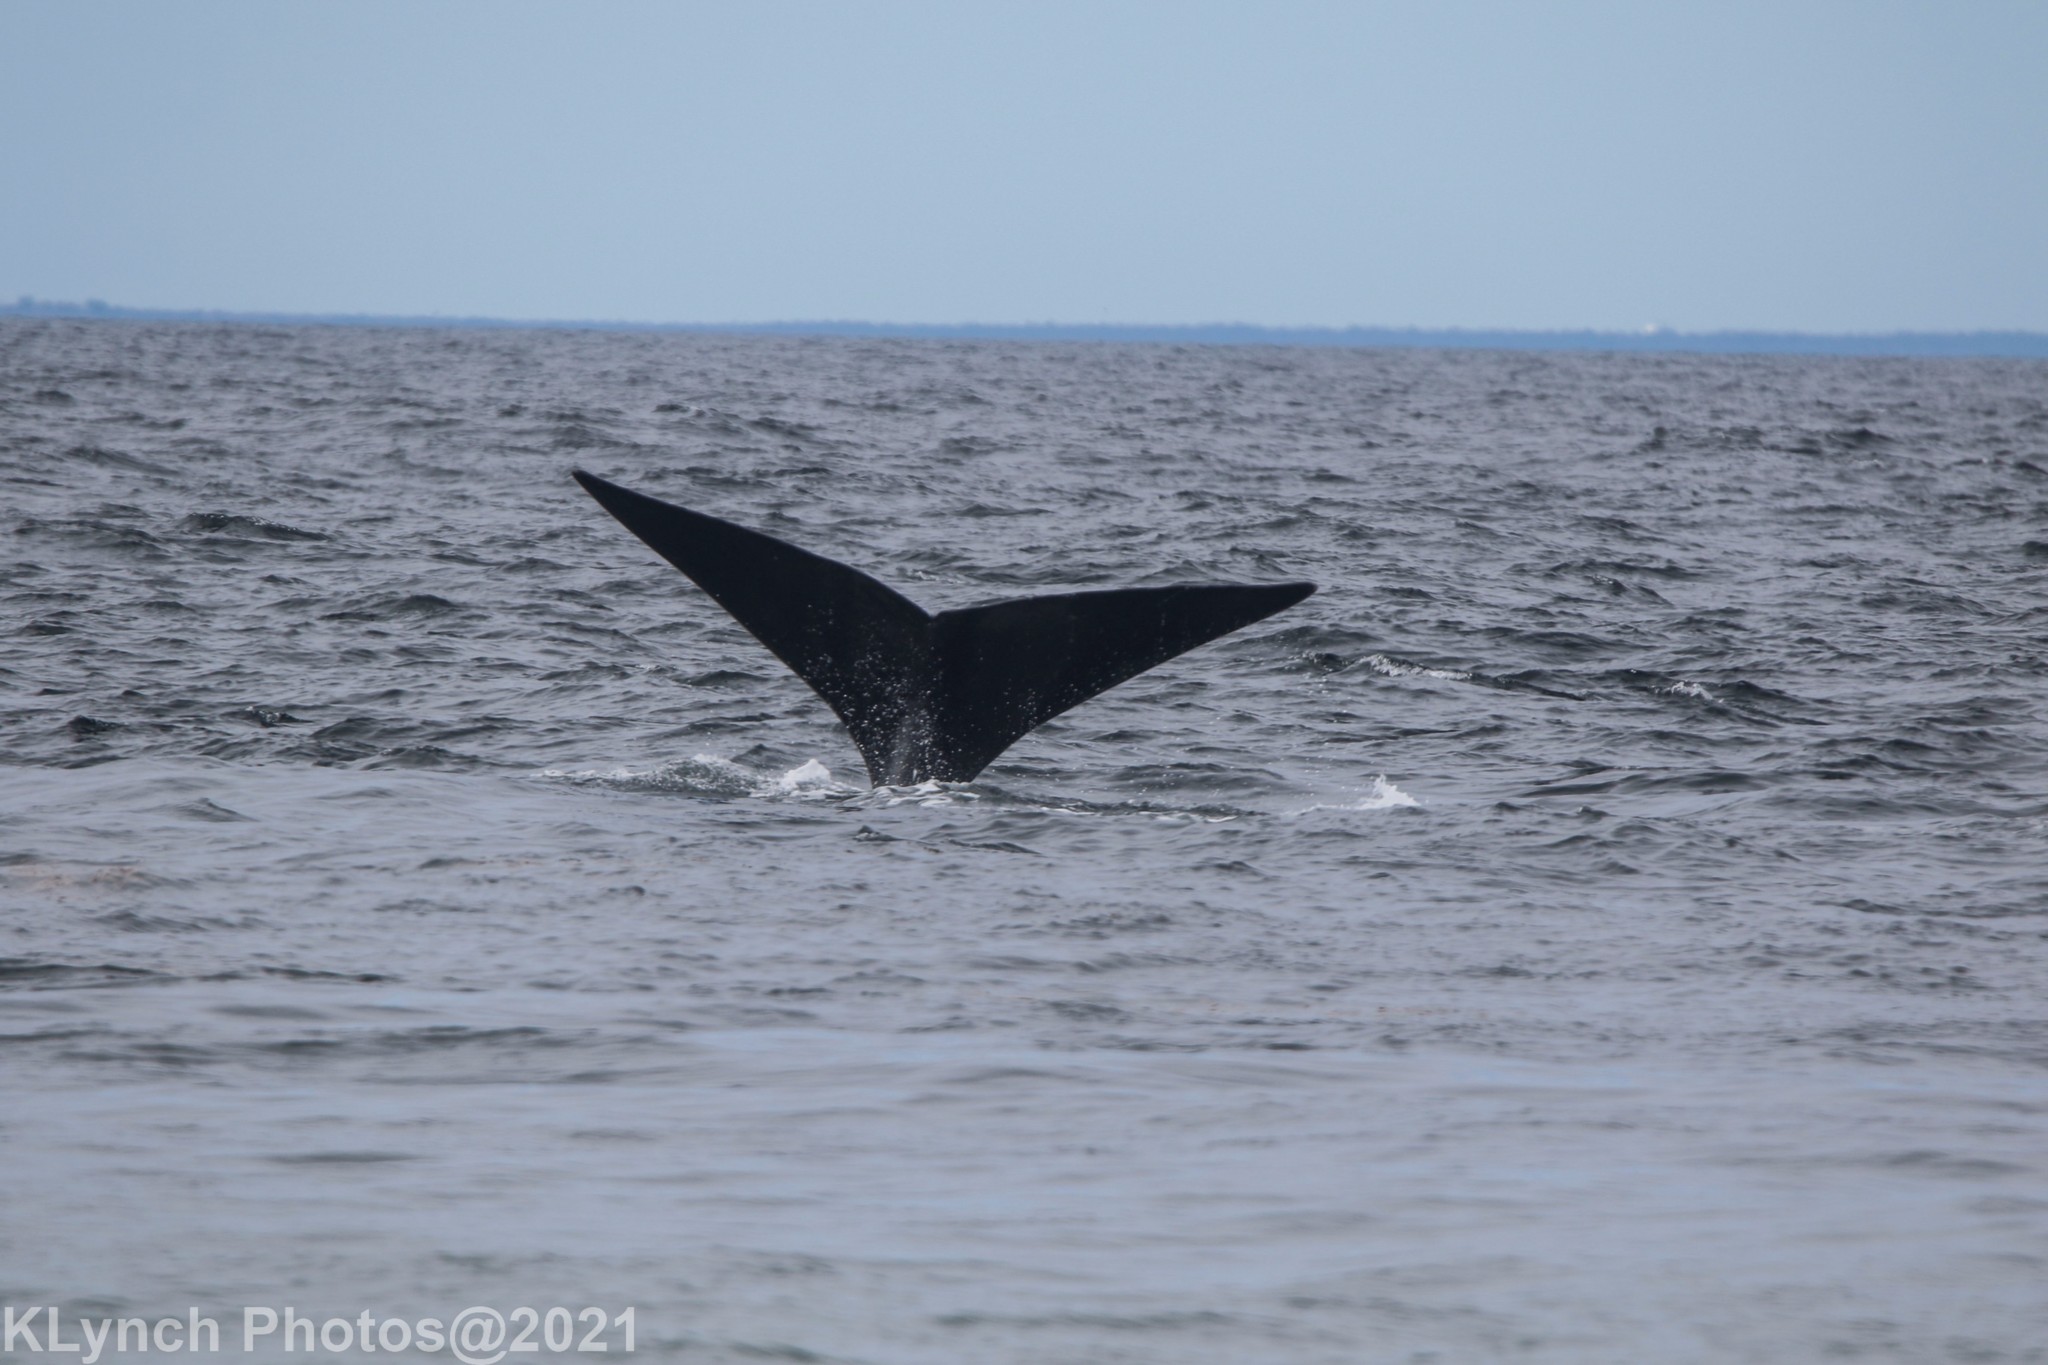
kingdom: Animalia
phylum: Chordata
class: Mammalia
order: Cetacea
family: Balaenidae
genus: Eubalaena
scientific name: Eubalaena glacialis
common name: North atlantic right whale
